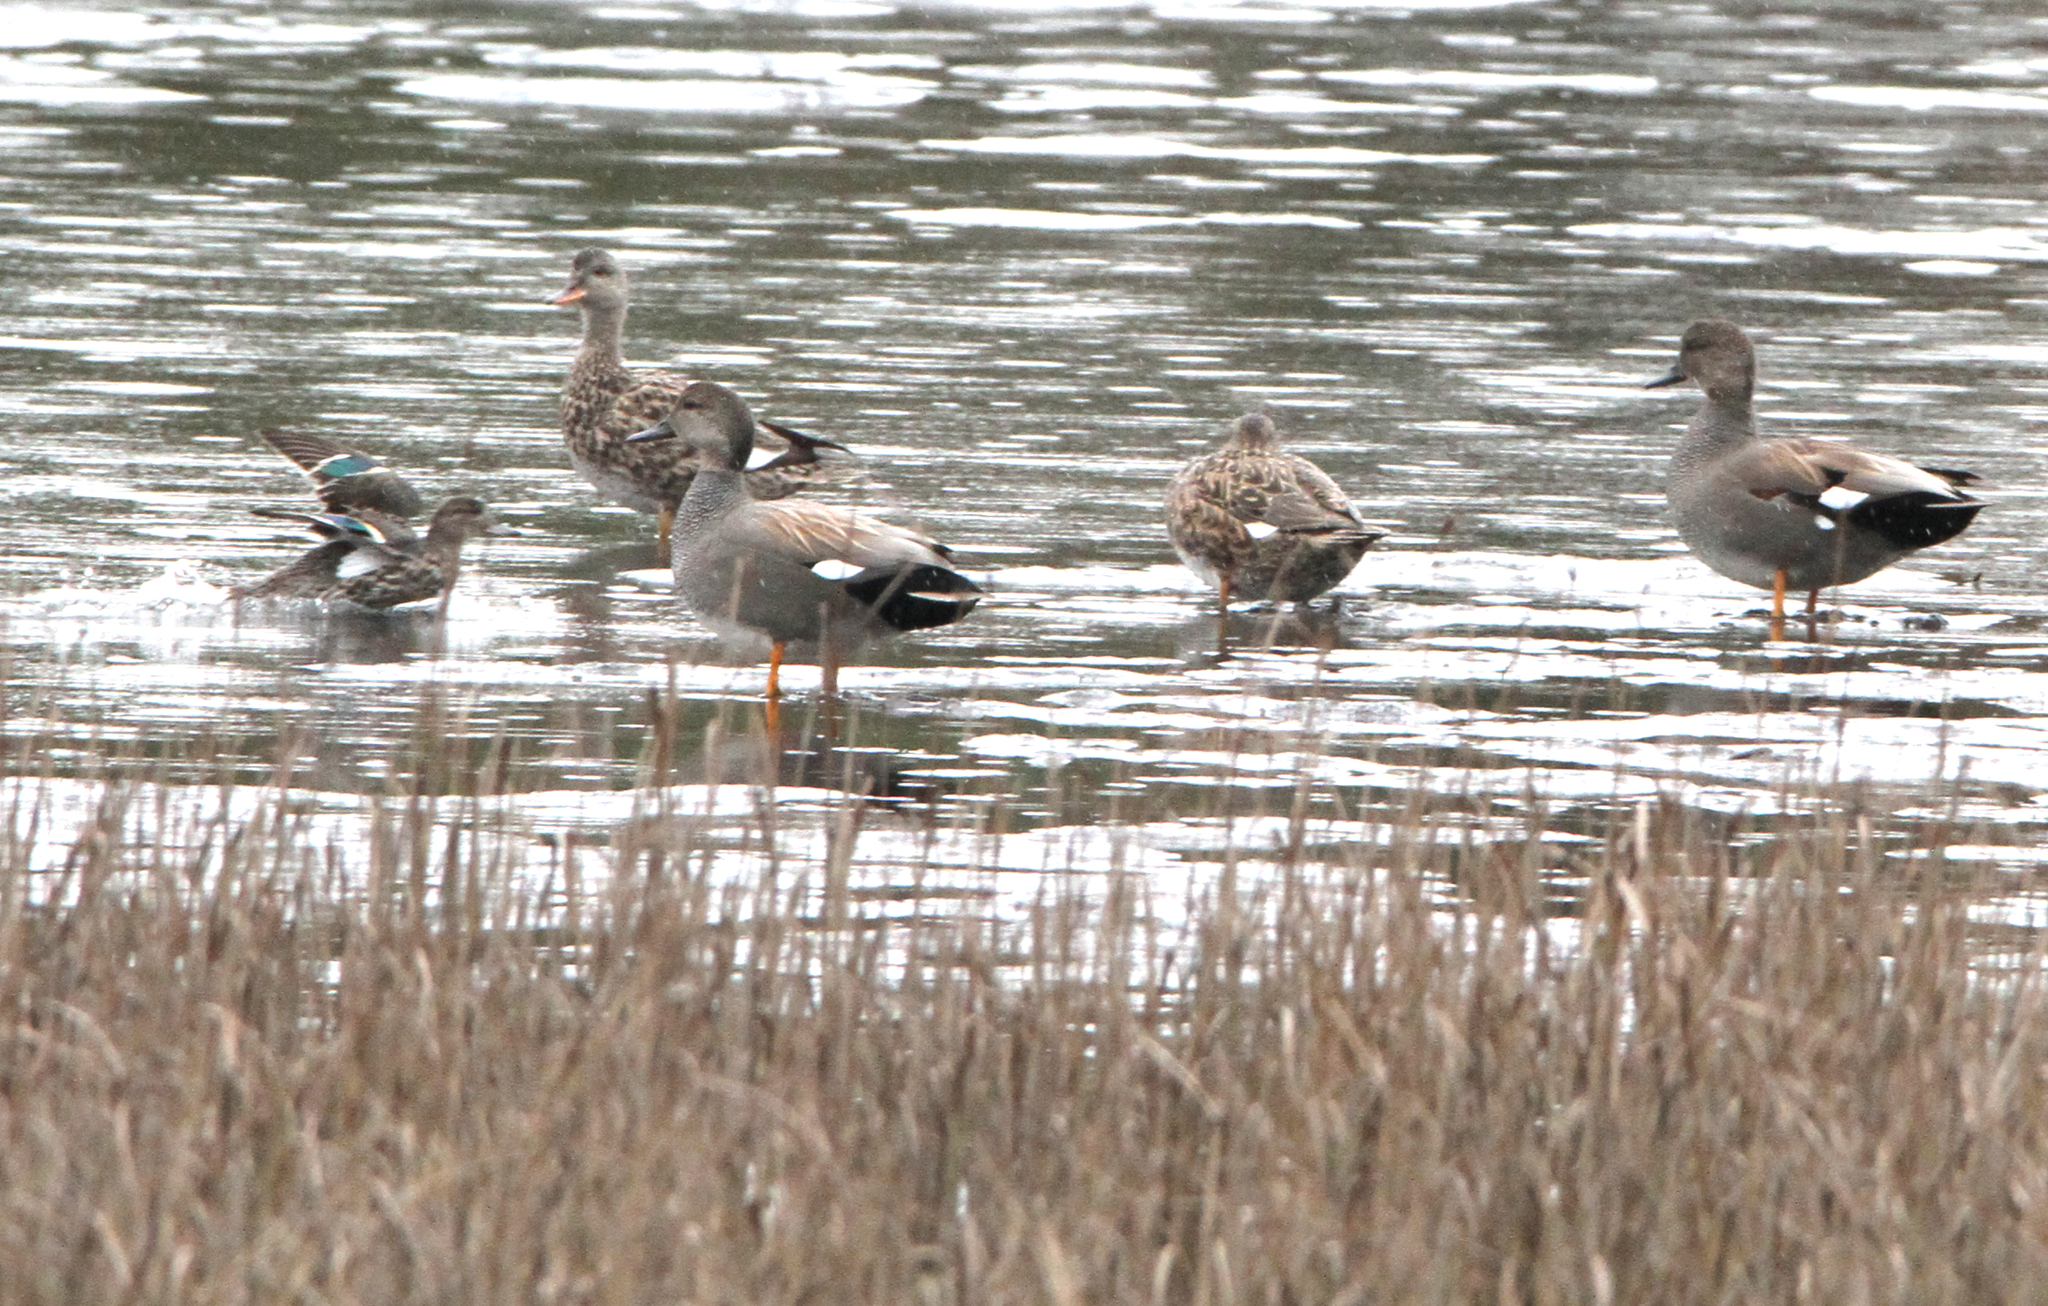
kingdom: Animalia
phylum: Chordata
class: Aves
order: Anseriformes
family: Anatidae
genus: Mareca
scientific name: Mareca strepera
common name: Gadwall
